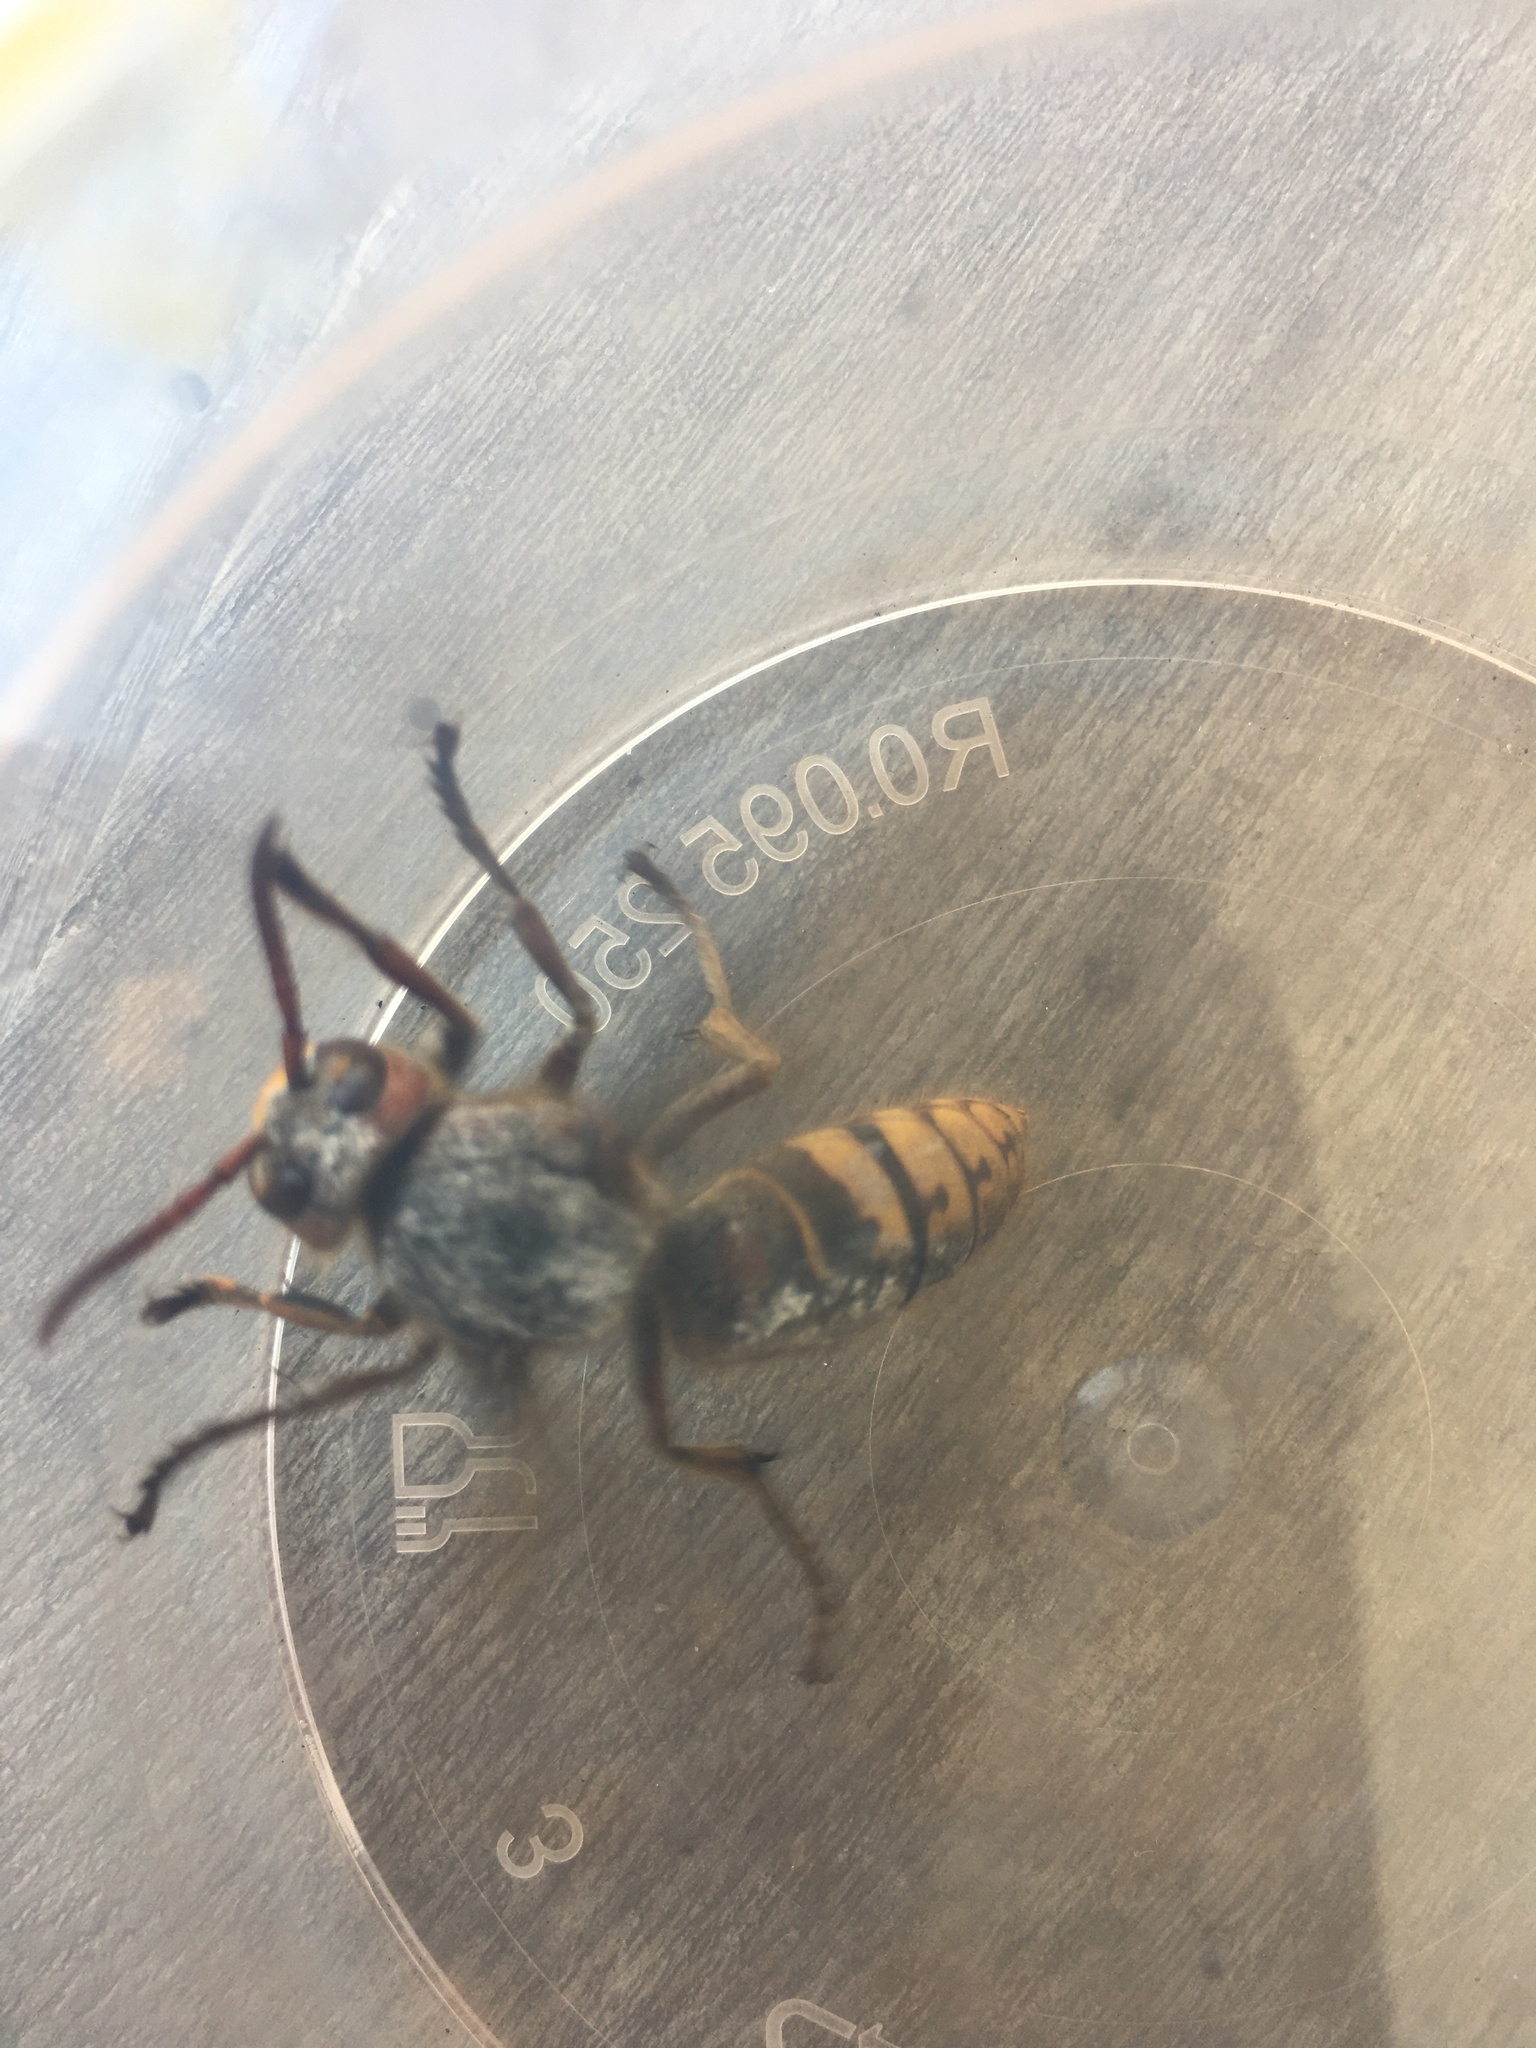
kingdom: Animalia
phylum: Arthropoda
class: Insecta
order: Hymenoptera
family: Vespidae
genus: Vespa
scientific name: Vespa crabro
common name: Hornet
